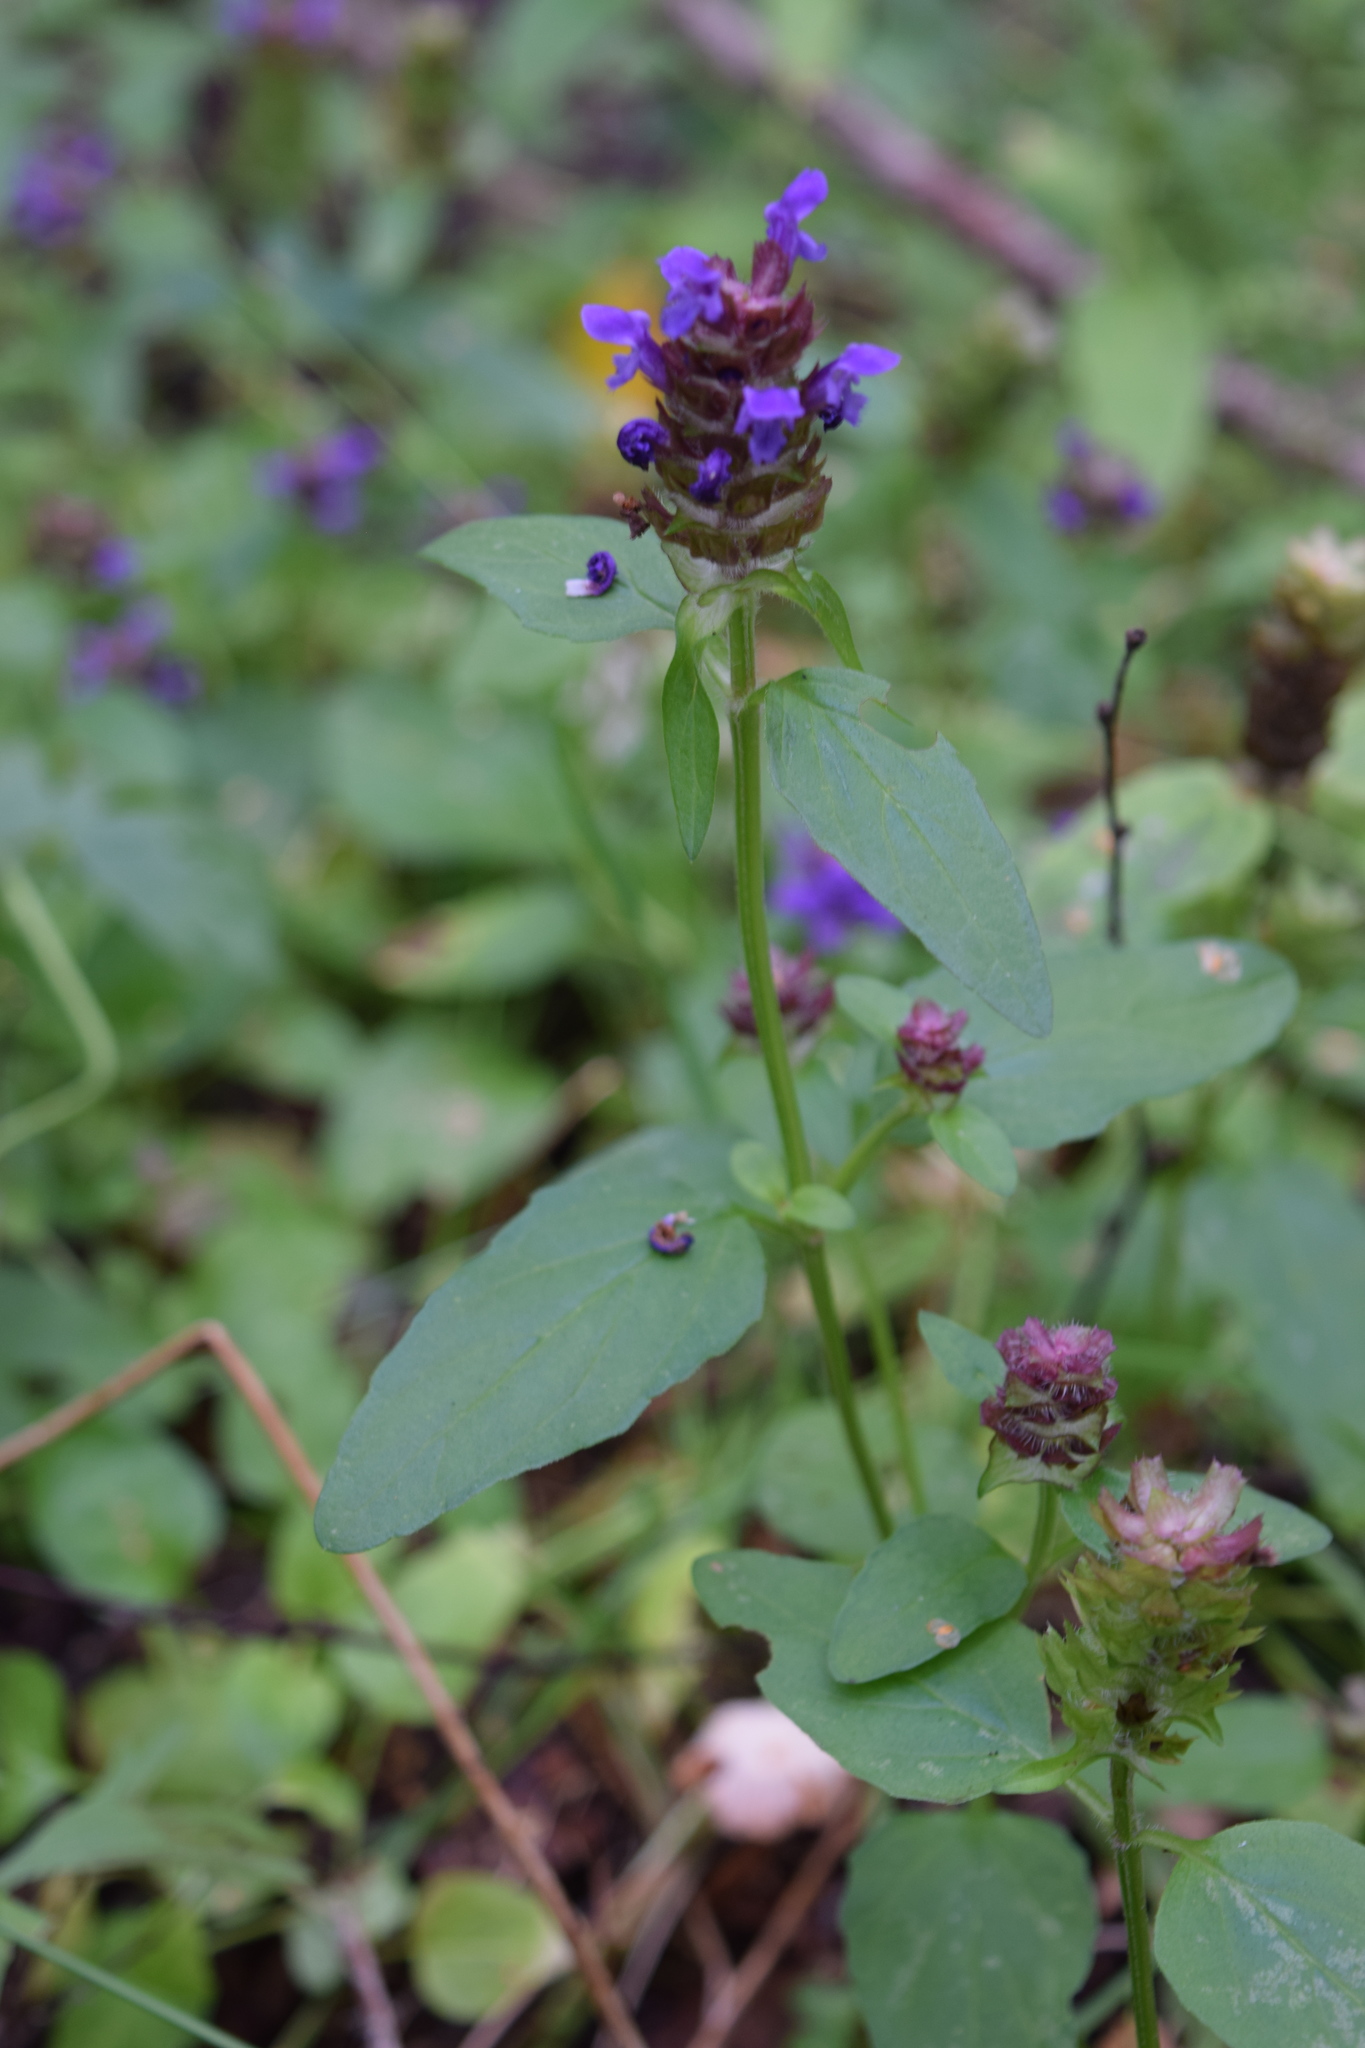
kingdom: Plantae
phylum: Tracheophyta
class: Magnoliopsida
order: Lamiales
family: Lamiaceae
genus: Prunella
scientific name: Prunella vulgaris
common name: Heal-all
